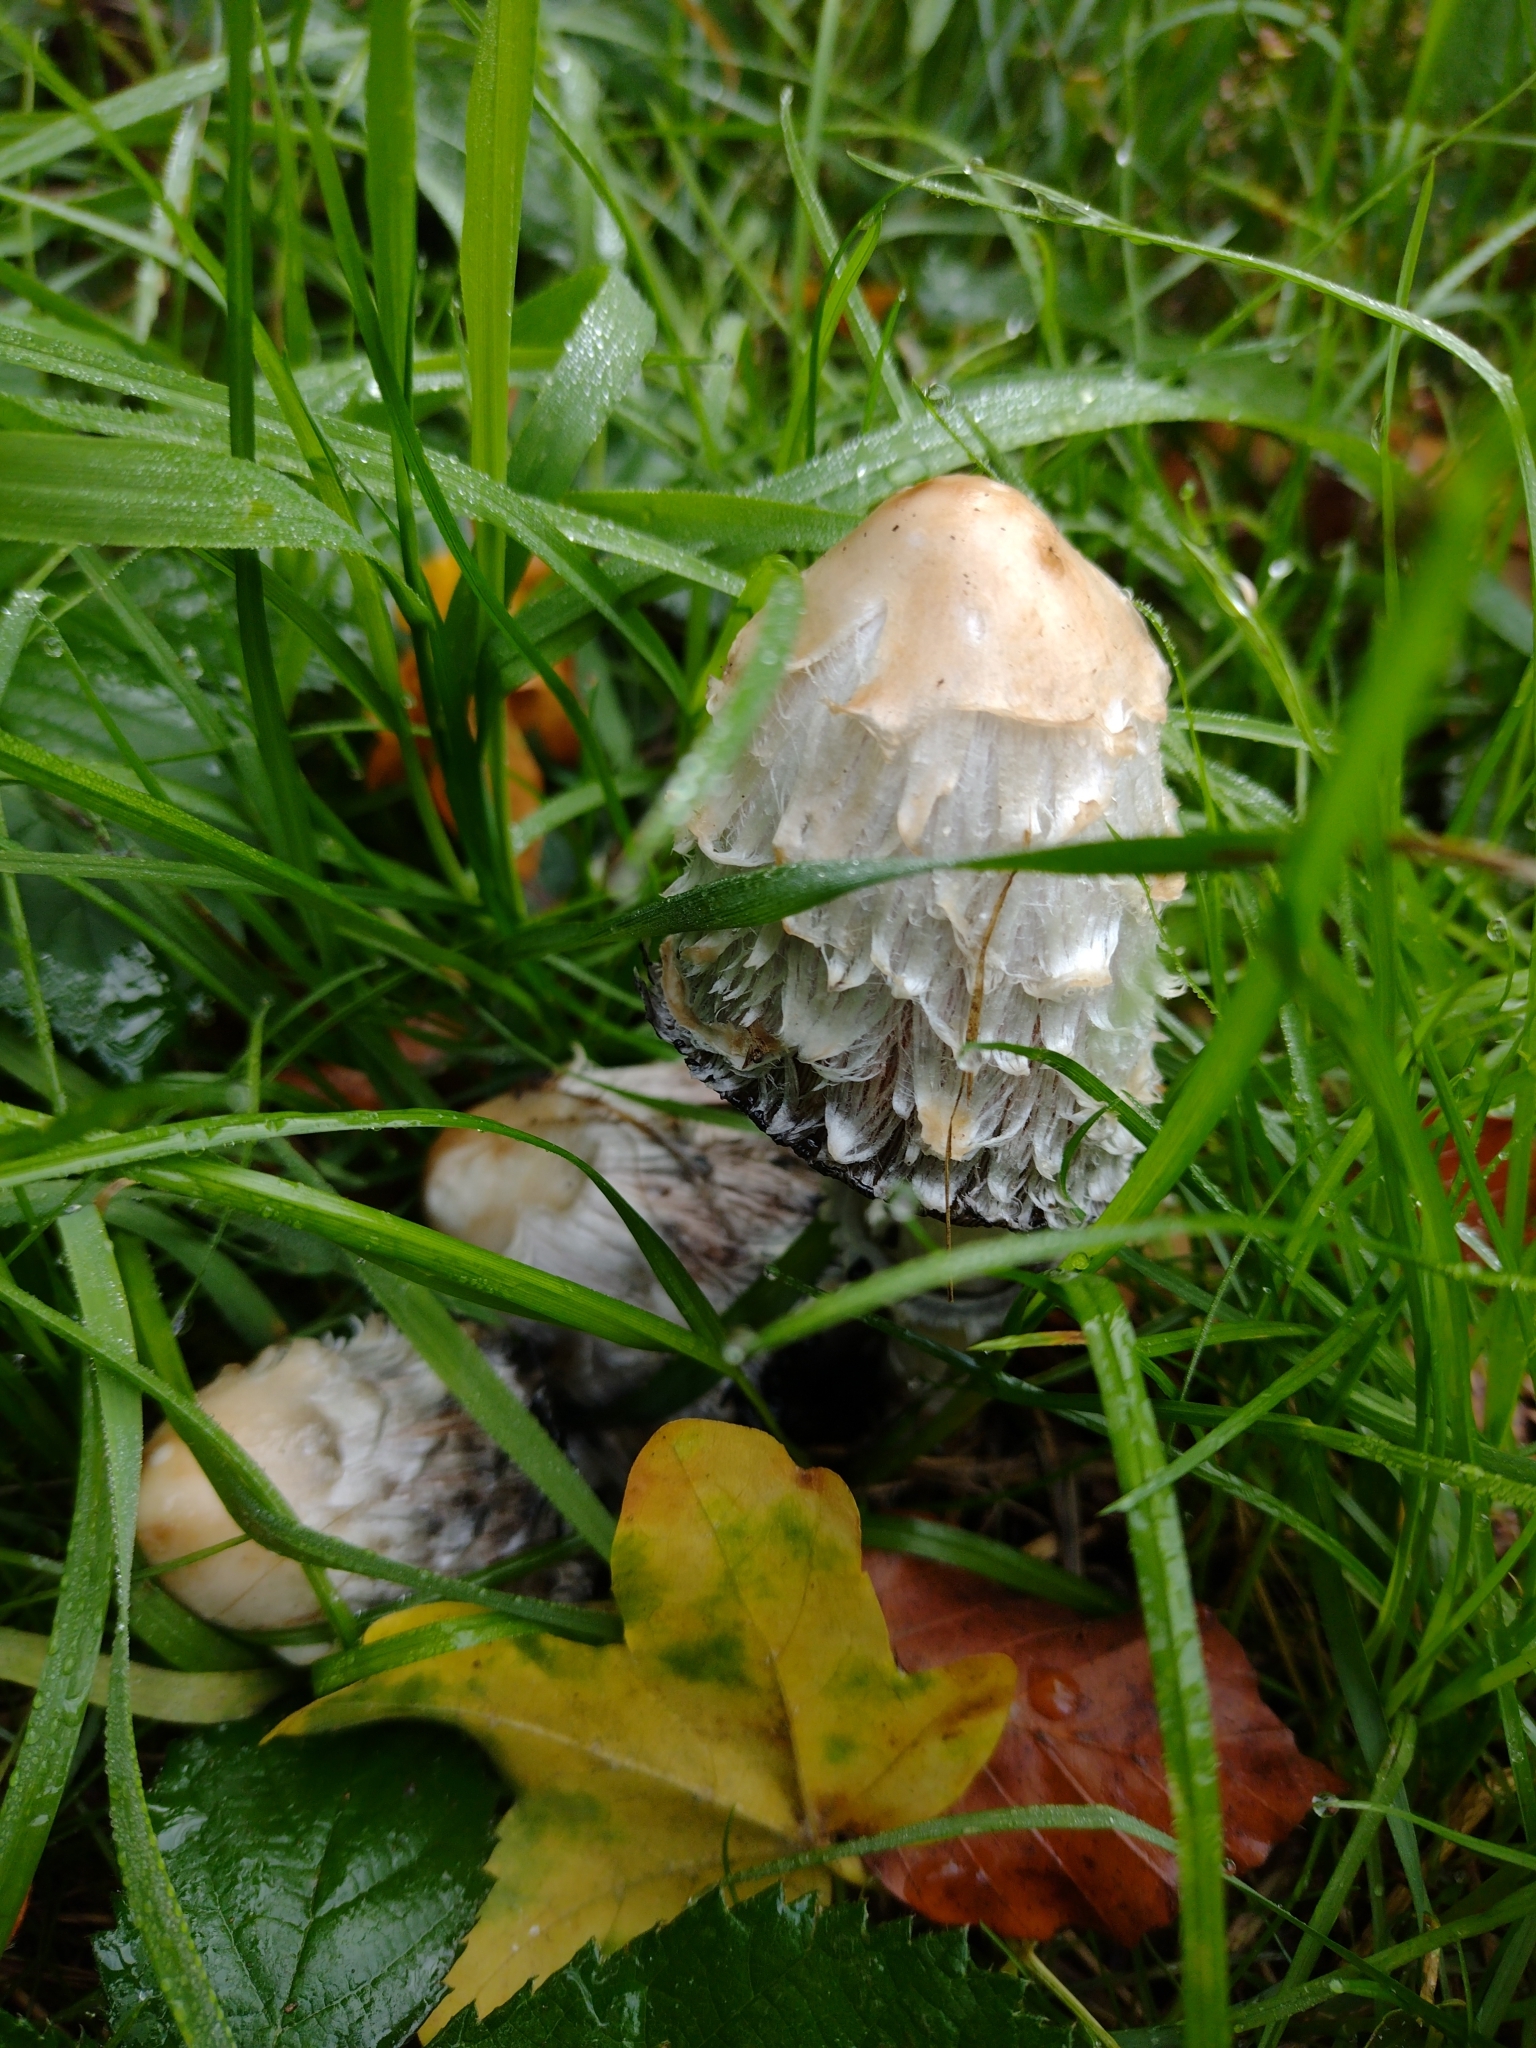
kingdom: Fungi
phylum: Basidiomycota
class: Agaricomycetes
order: Agaricales
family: Agaricaceae
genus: Coprinus
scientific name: Coprinus comatus
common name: Lawyer's wig
